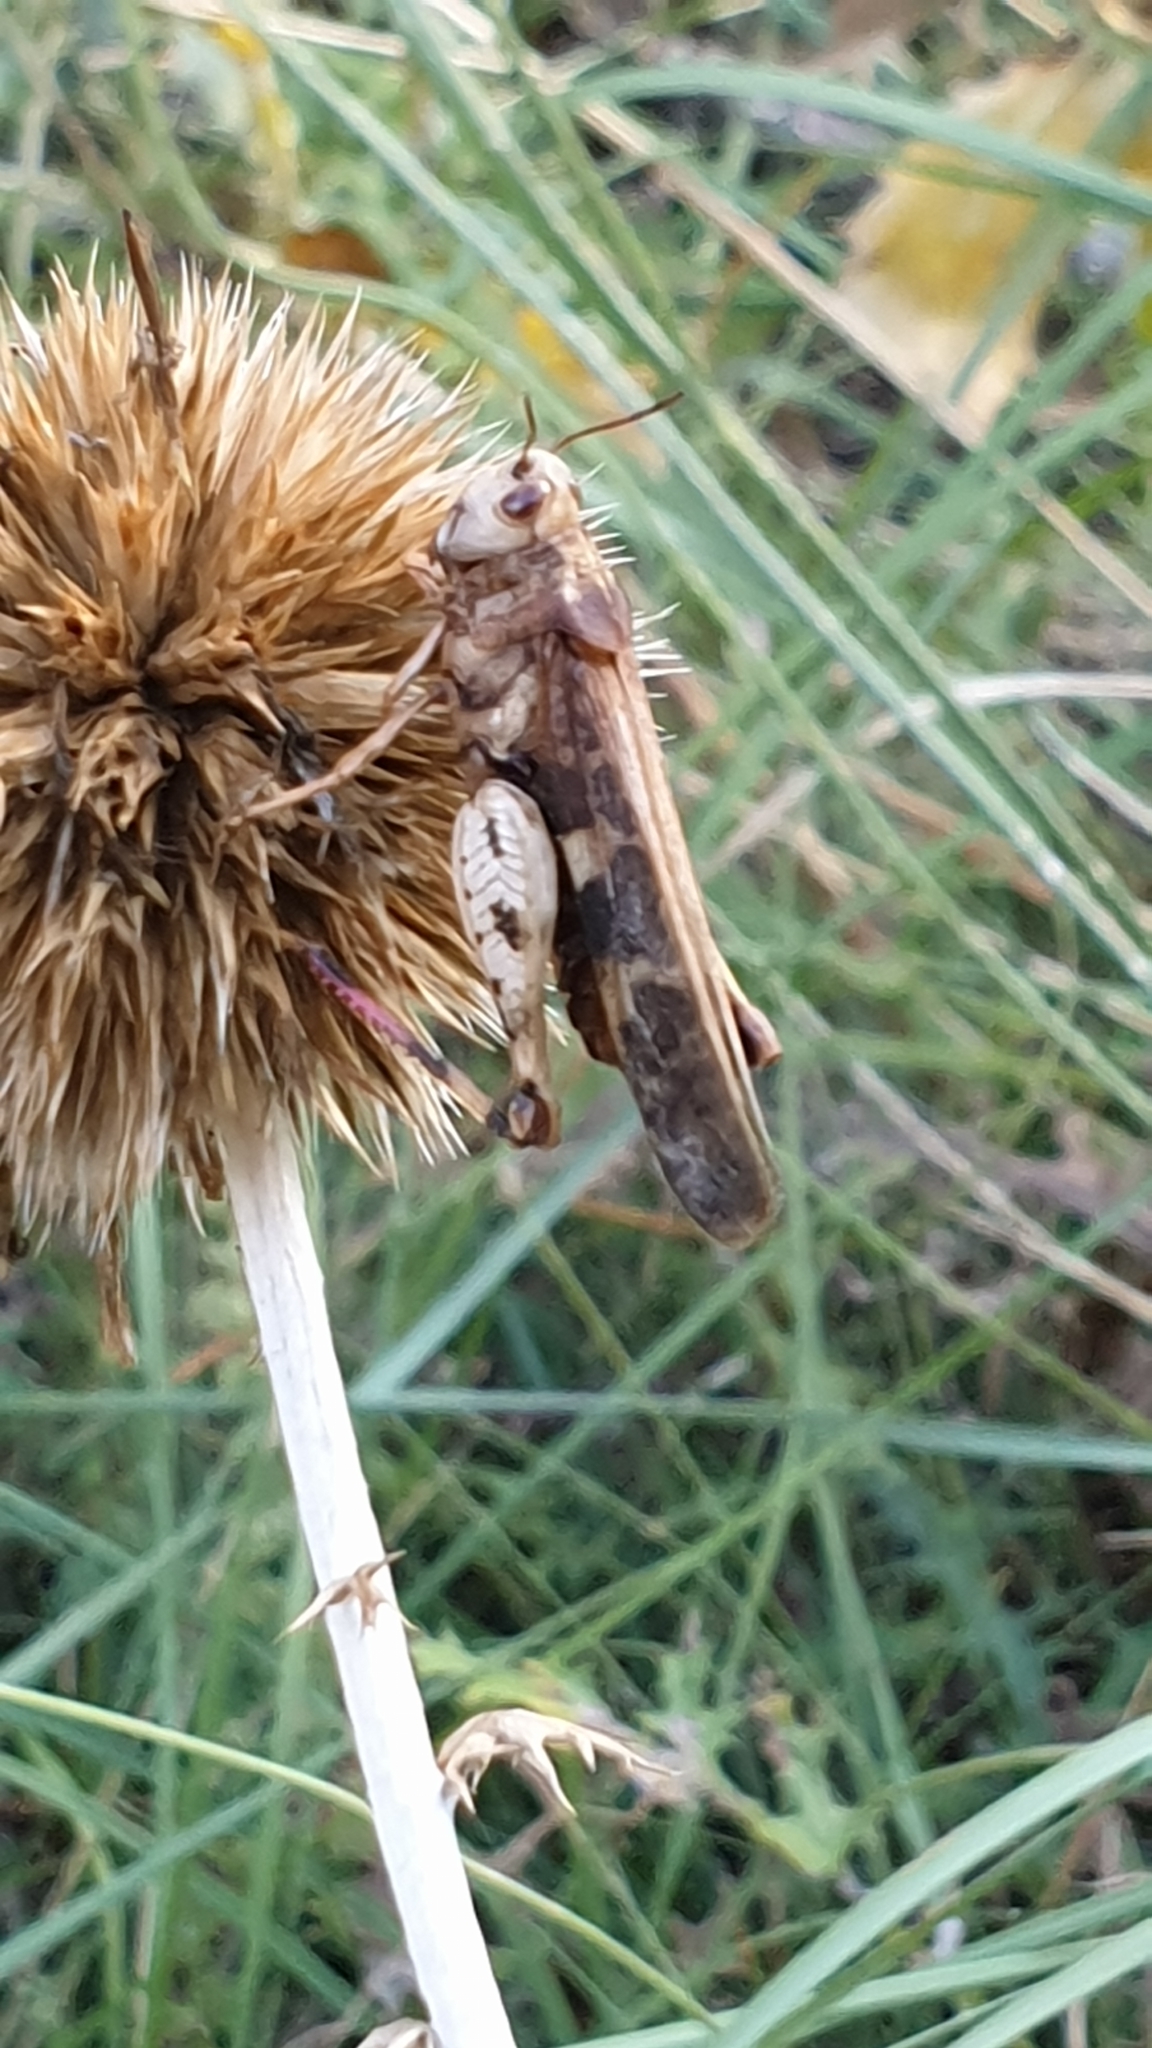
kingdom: Animalia
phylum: Arthropoda
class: Insecta
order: Orthoptera
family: Acrididae
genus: Aiolopus
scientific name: Aiolopus strepens
